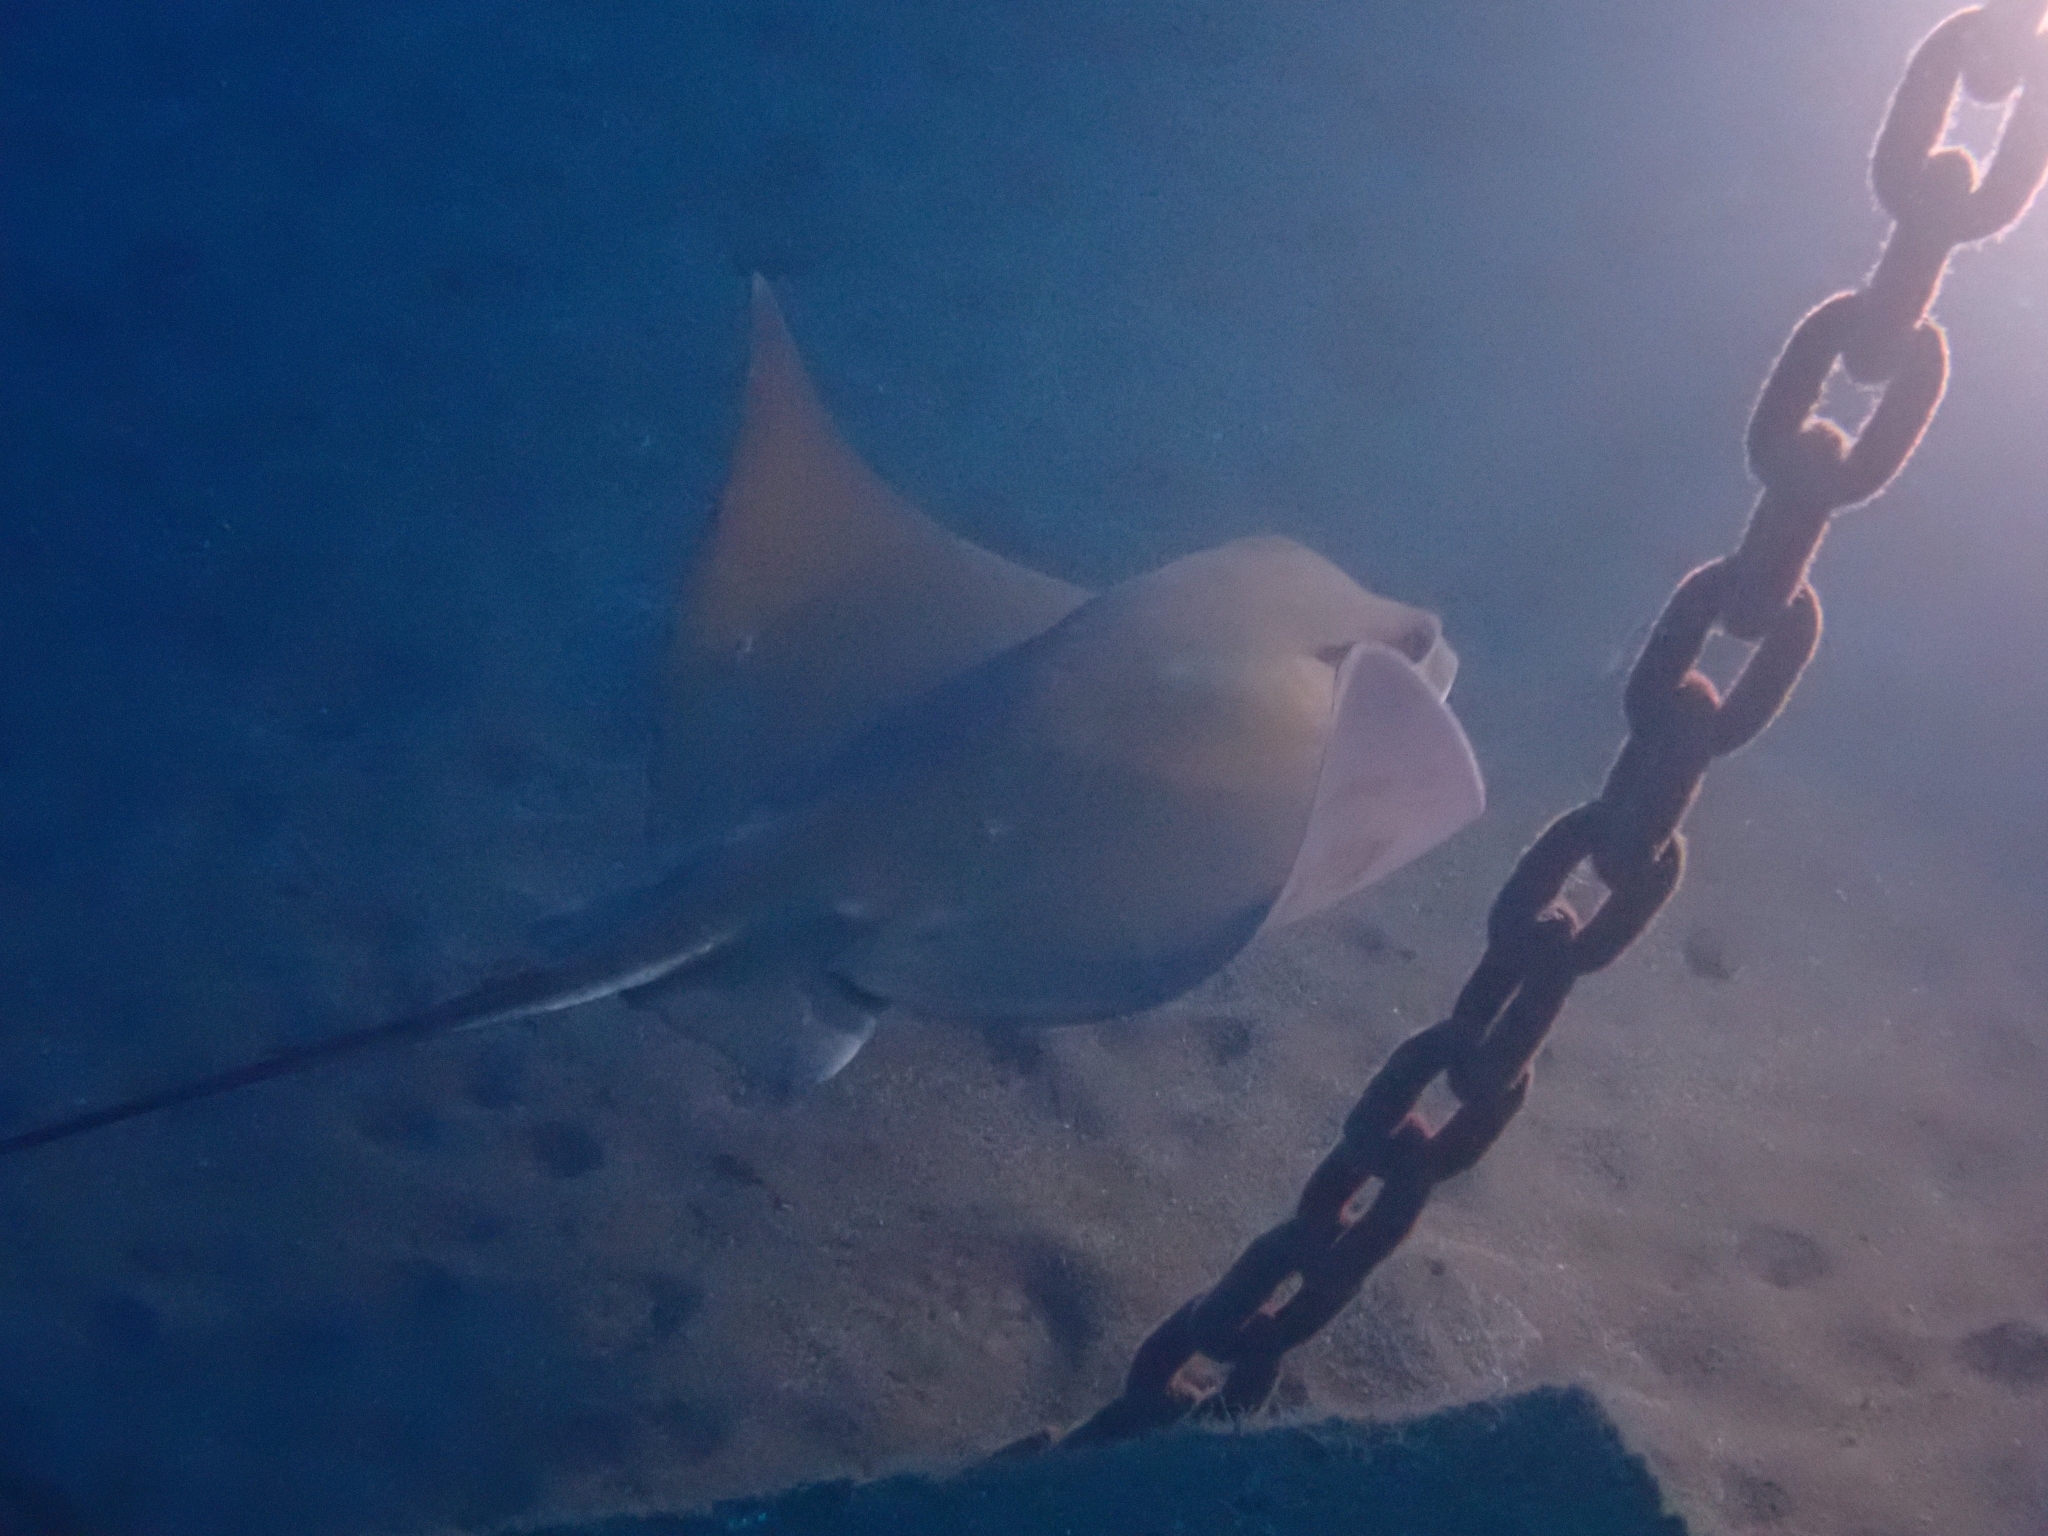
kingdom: Animalia
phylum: Chordata
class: Elasmobranchii
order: Myliobatiformes
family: Myliobatidae
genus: Myliobatis
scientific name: Myliobatis aquila
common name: Eagle ray
